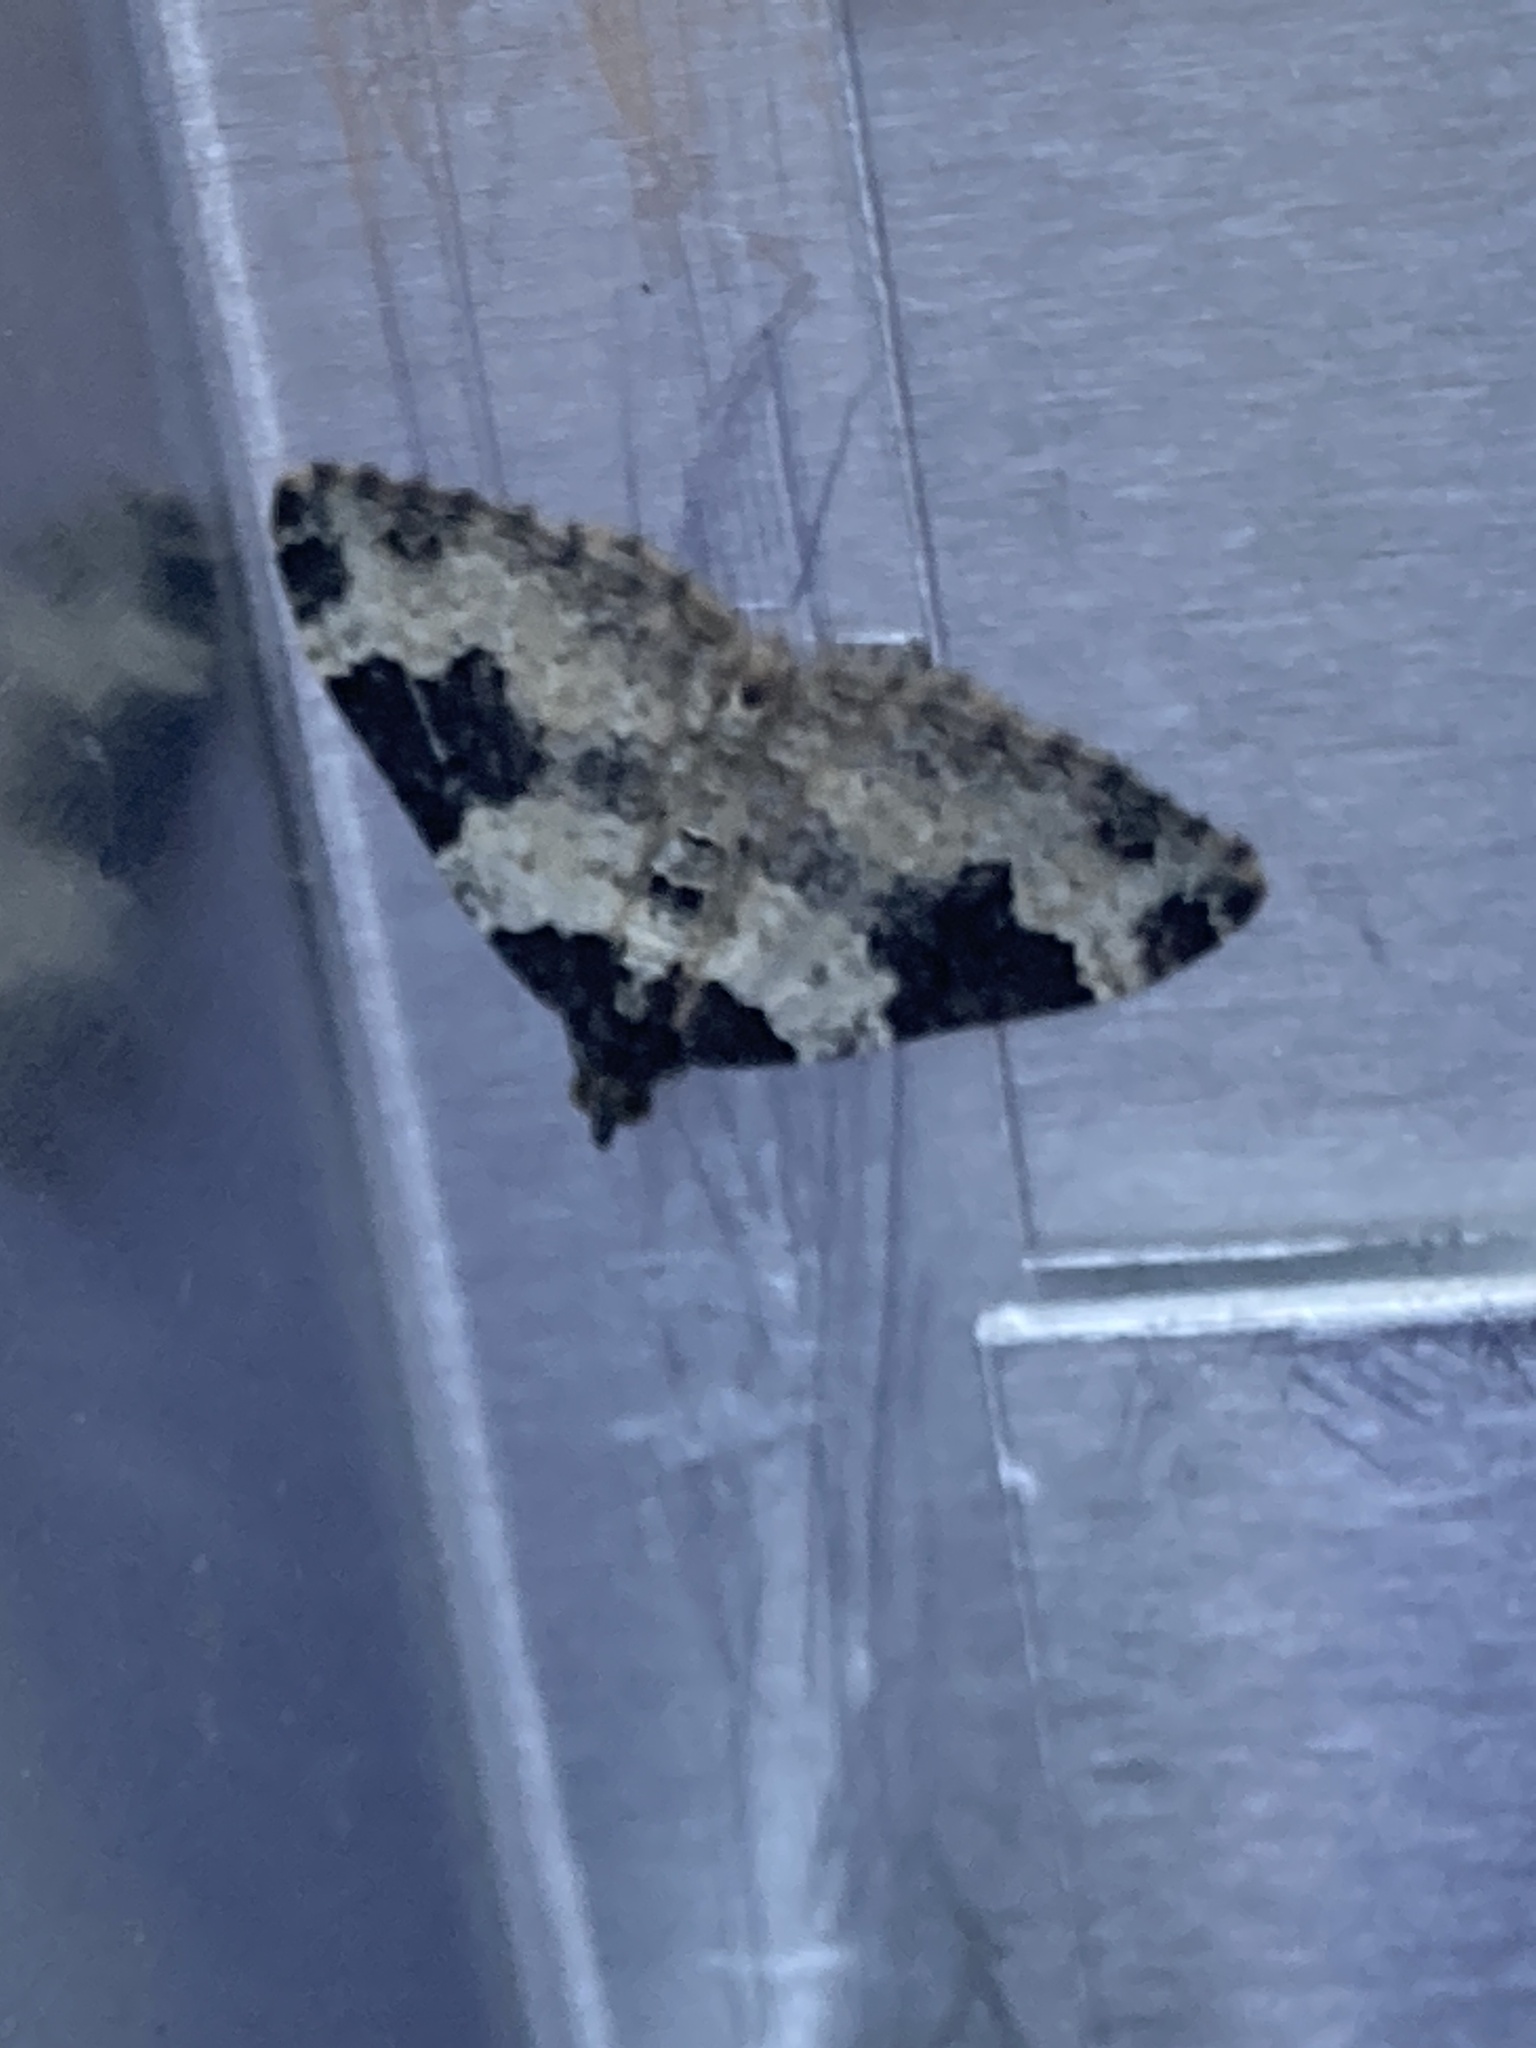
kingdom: Animalia
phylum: Arthropoda
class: Insecta
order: Lepidoptera
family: Geometridae
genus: Xanthorhoe
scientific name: Xanthorhoe fluctuata
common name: Garden carpet
